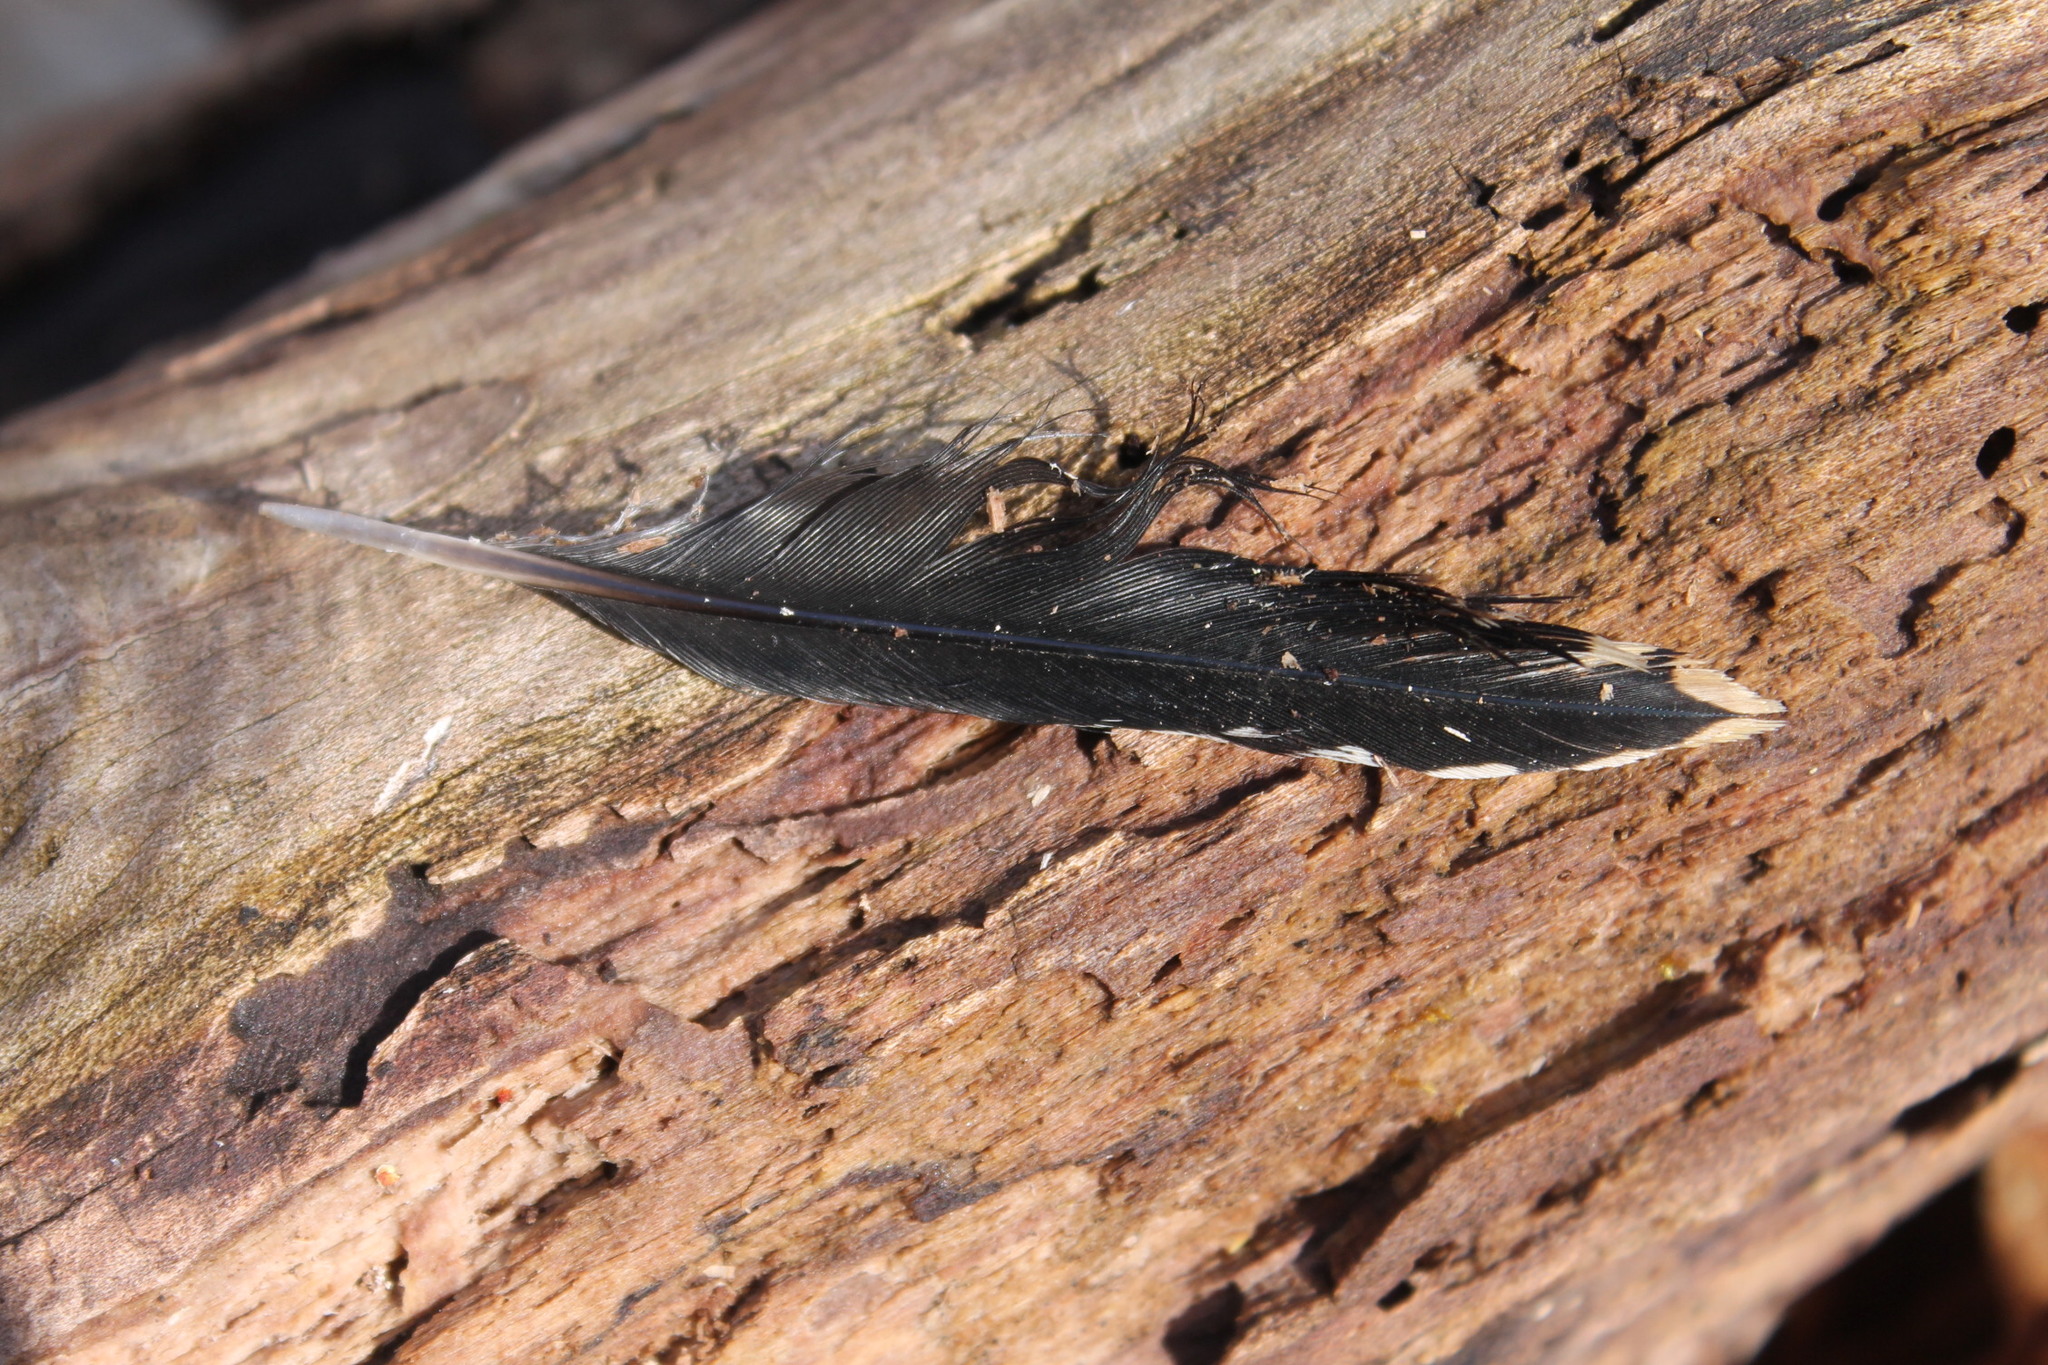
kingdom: Animalia
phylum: Chordata
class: Aves
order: Piciformes
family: Picidae
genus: Melanerpes
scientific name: Melanerpes carolinus
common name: Red-bellied woodpecker
